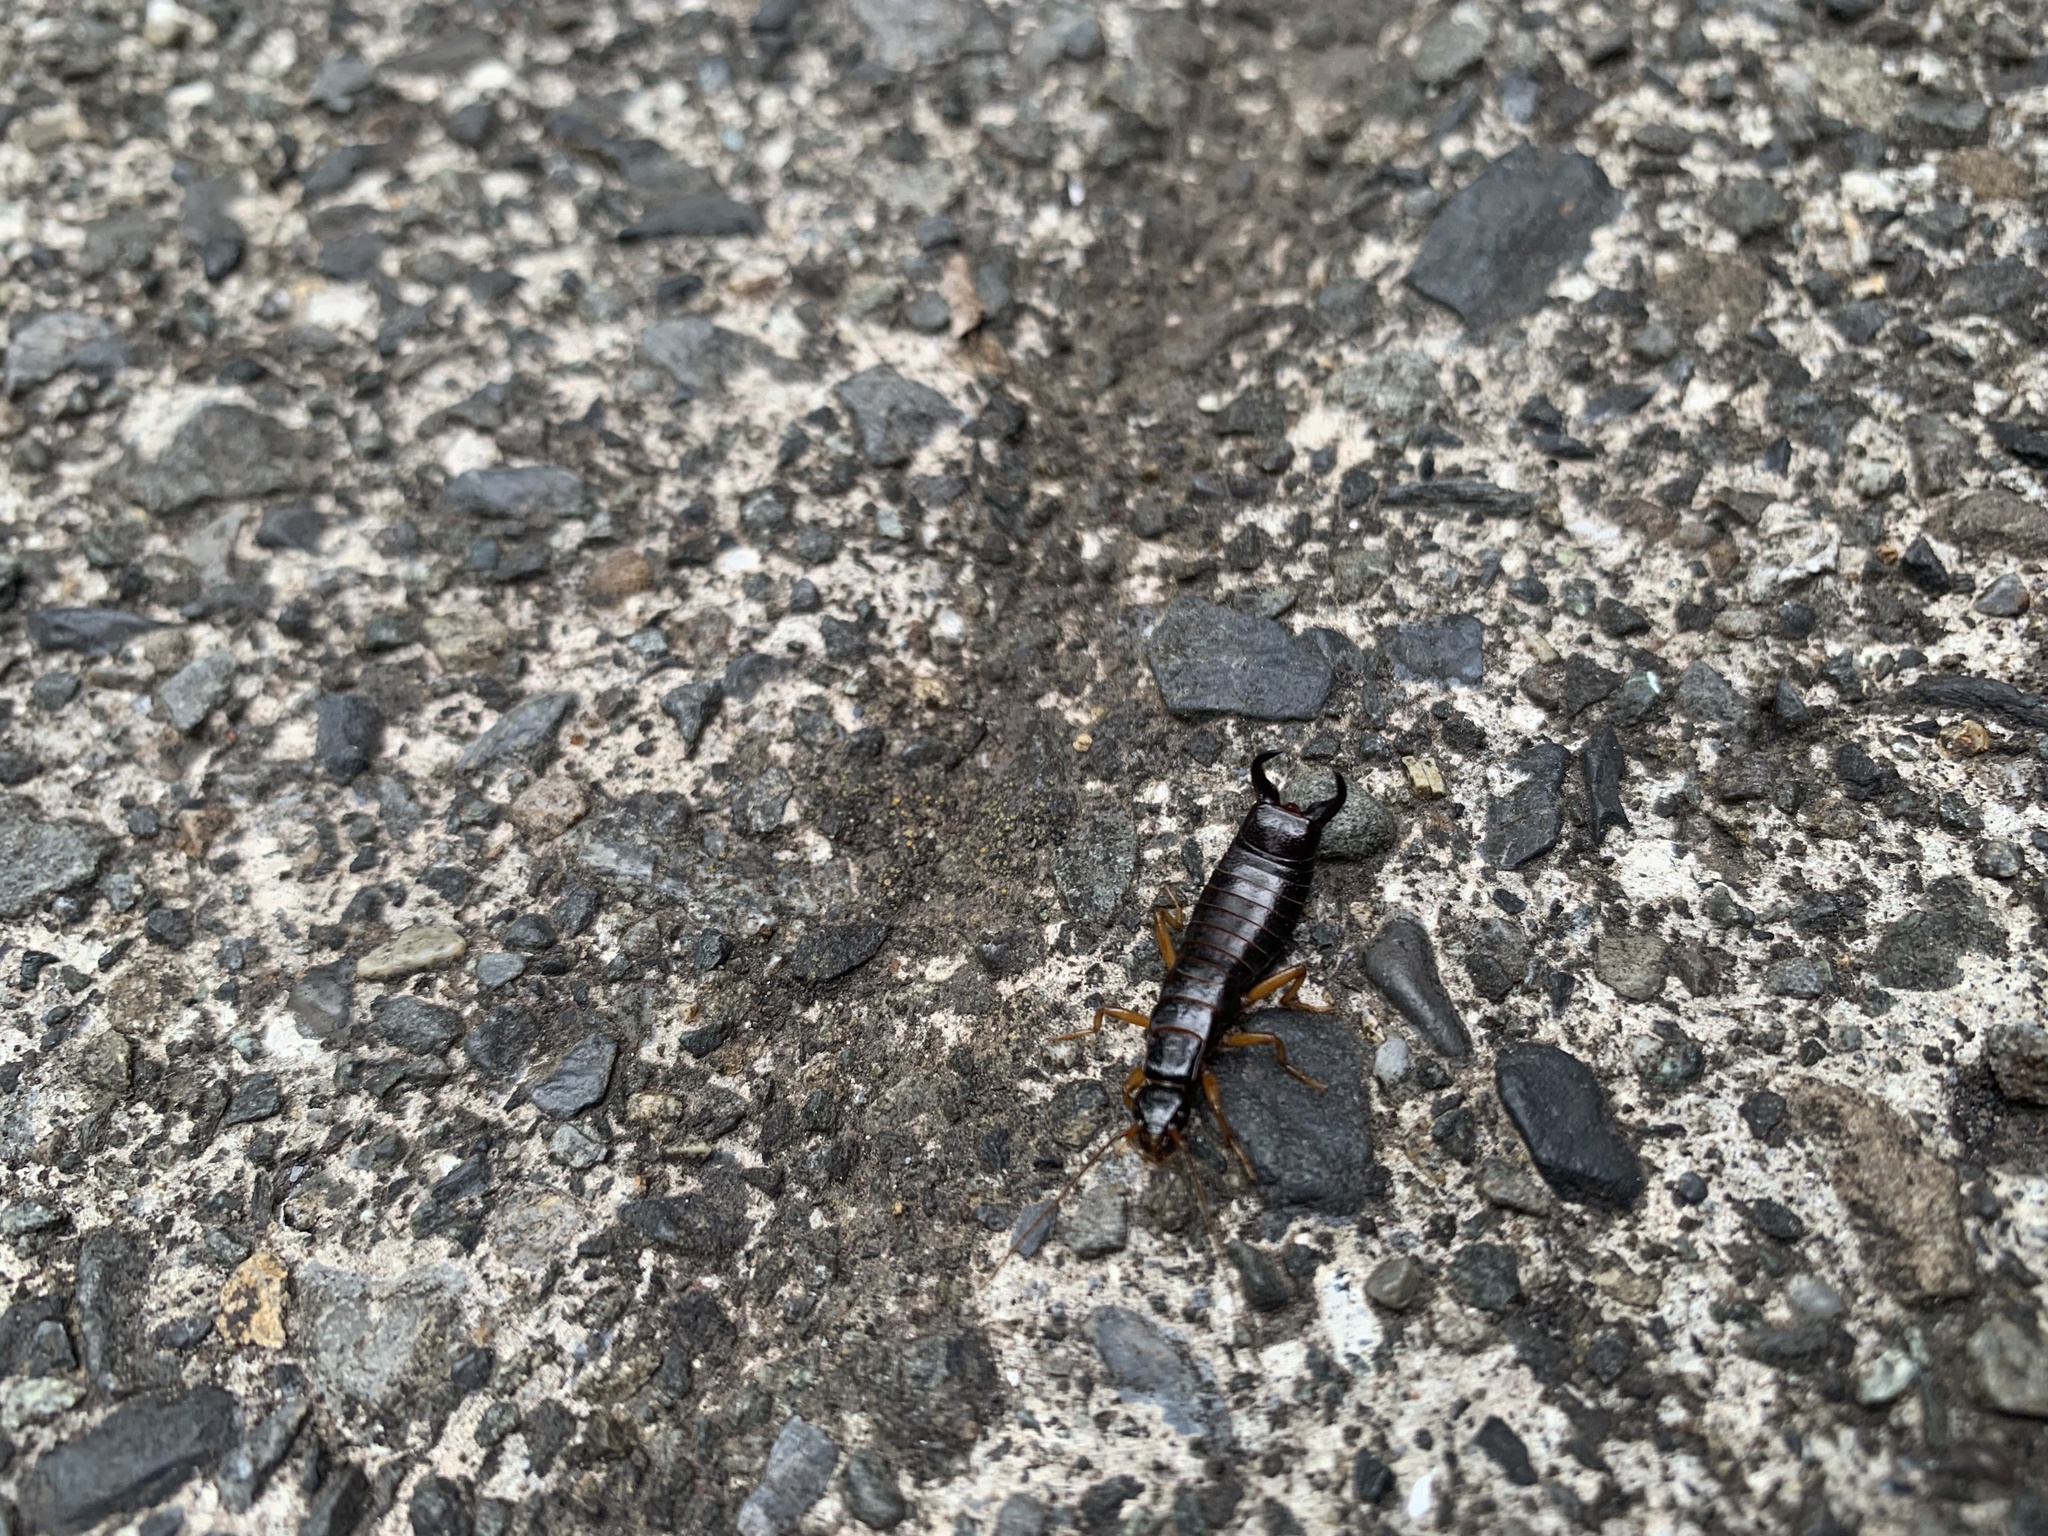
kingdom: Animalia
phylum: Arthropoda
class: Insecta
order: Dermaptera
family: Anisolabididae
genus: Anisolabis
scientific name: Anisolabis maritima
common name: Maritime earwig
